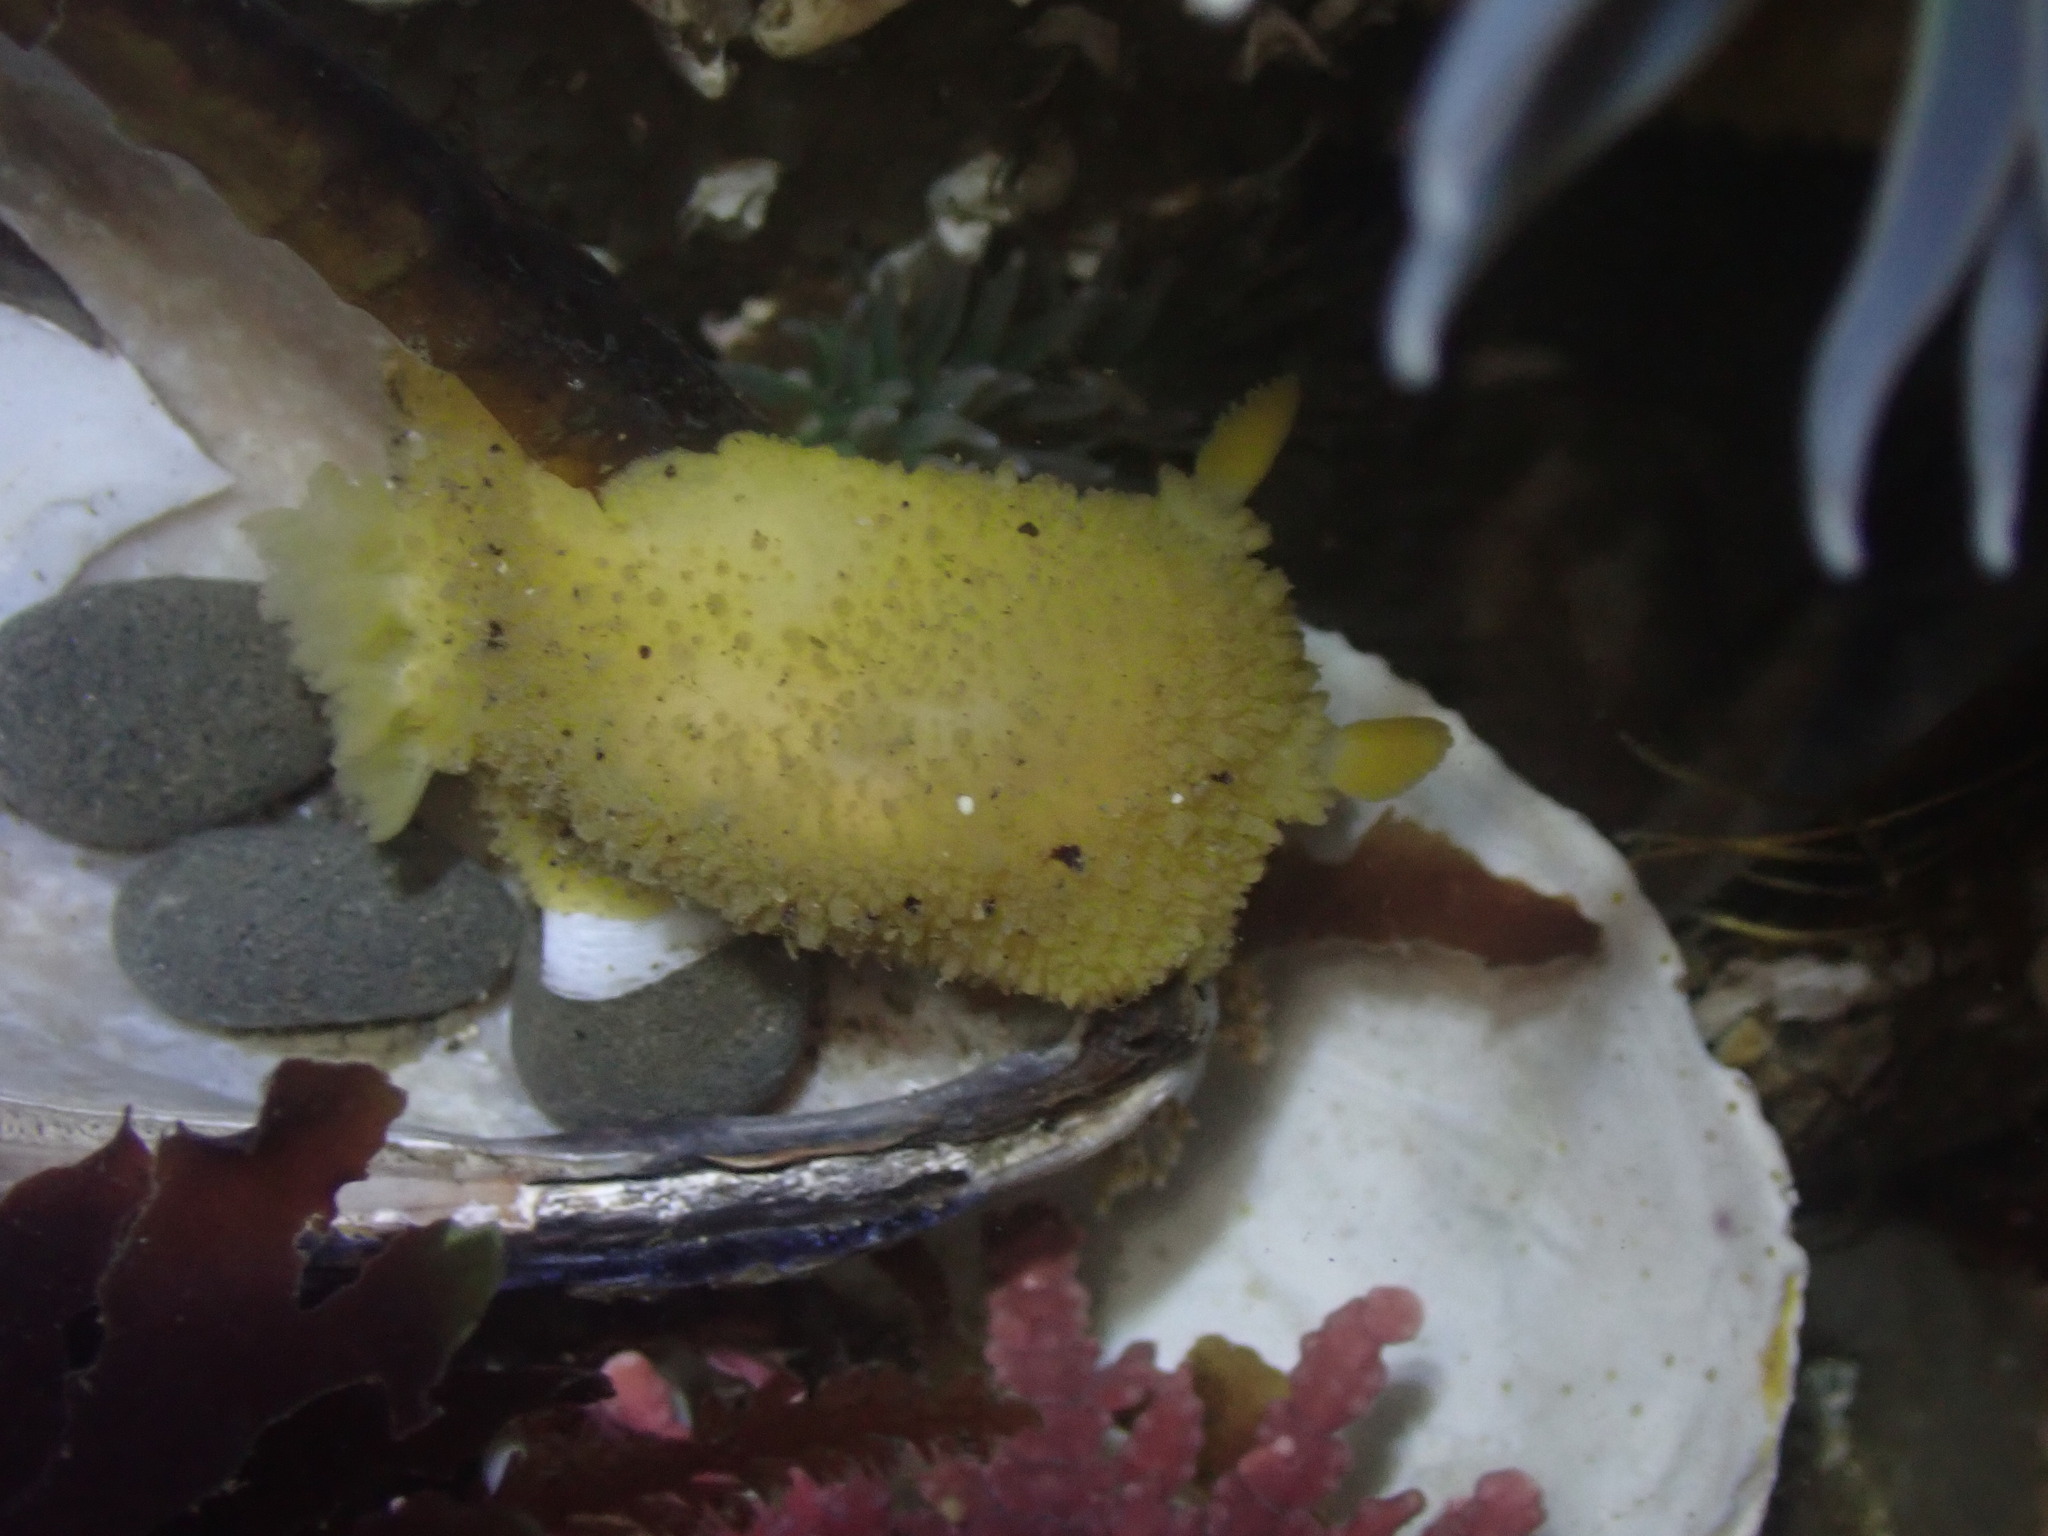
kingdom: Animalia
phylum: Mollusca
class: Gastropoda
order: Nudibranchia
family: Dorididae
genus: Doris
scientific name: Doris montereyensis
